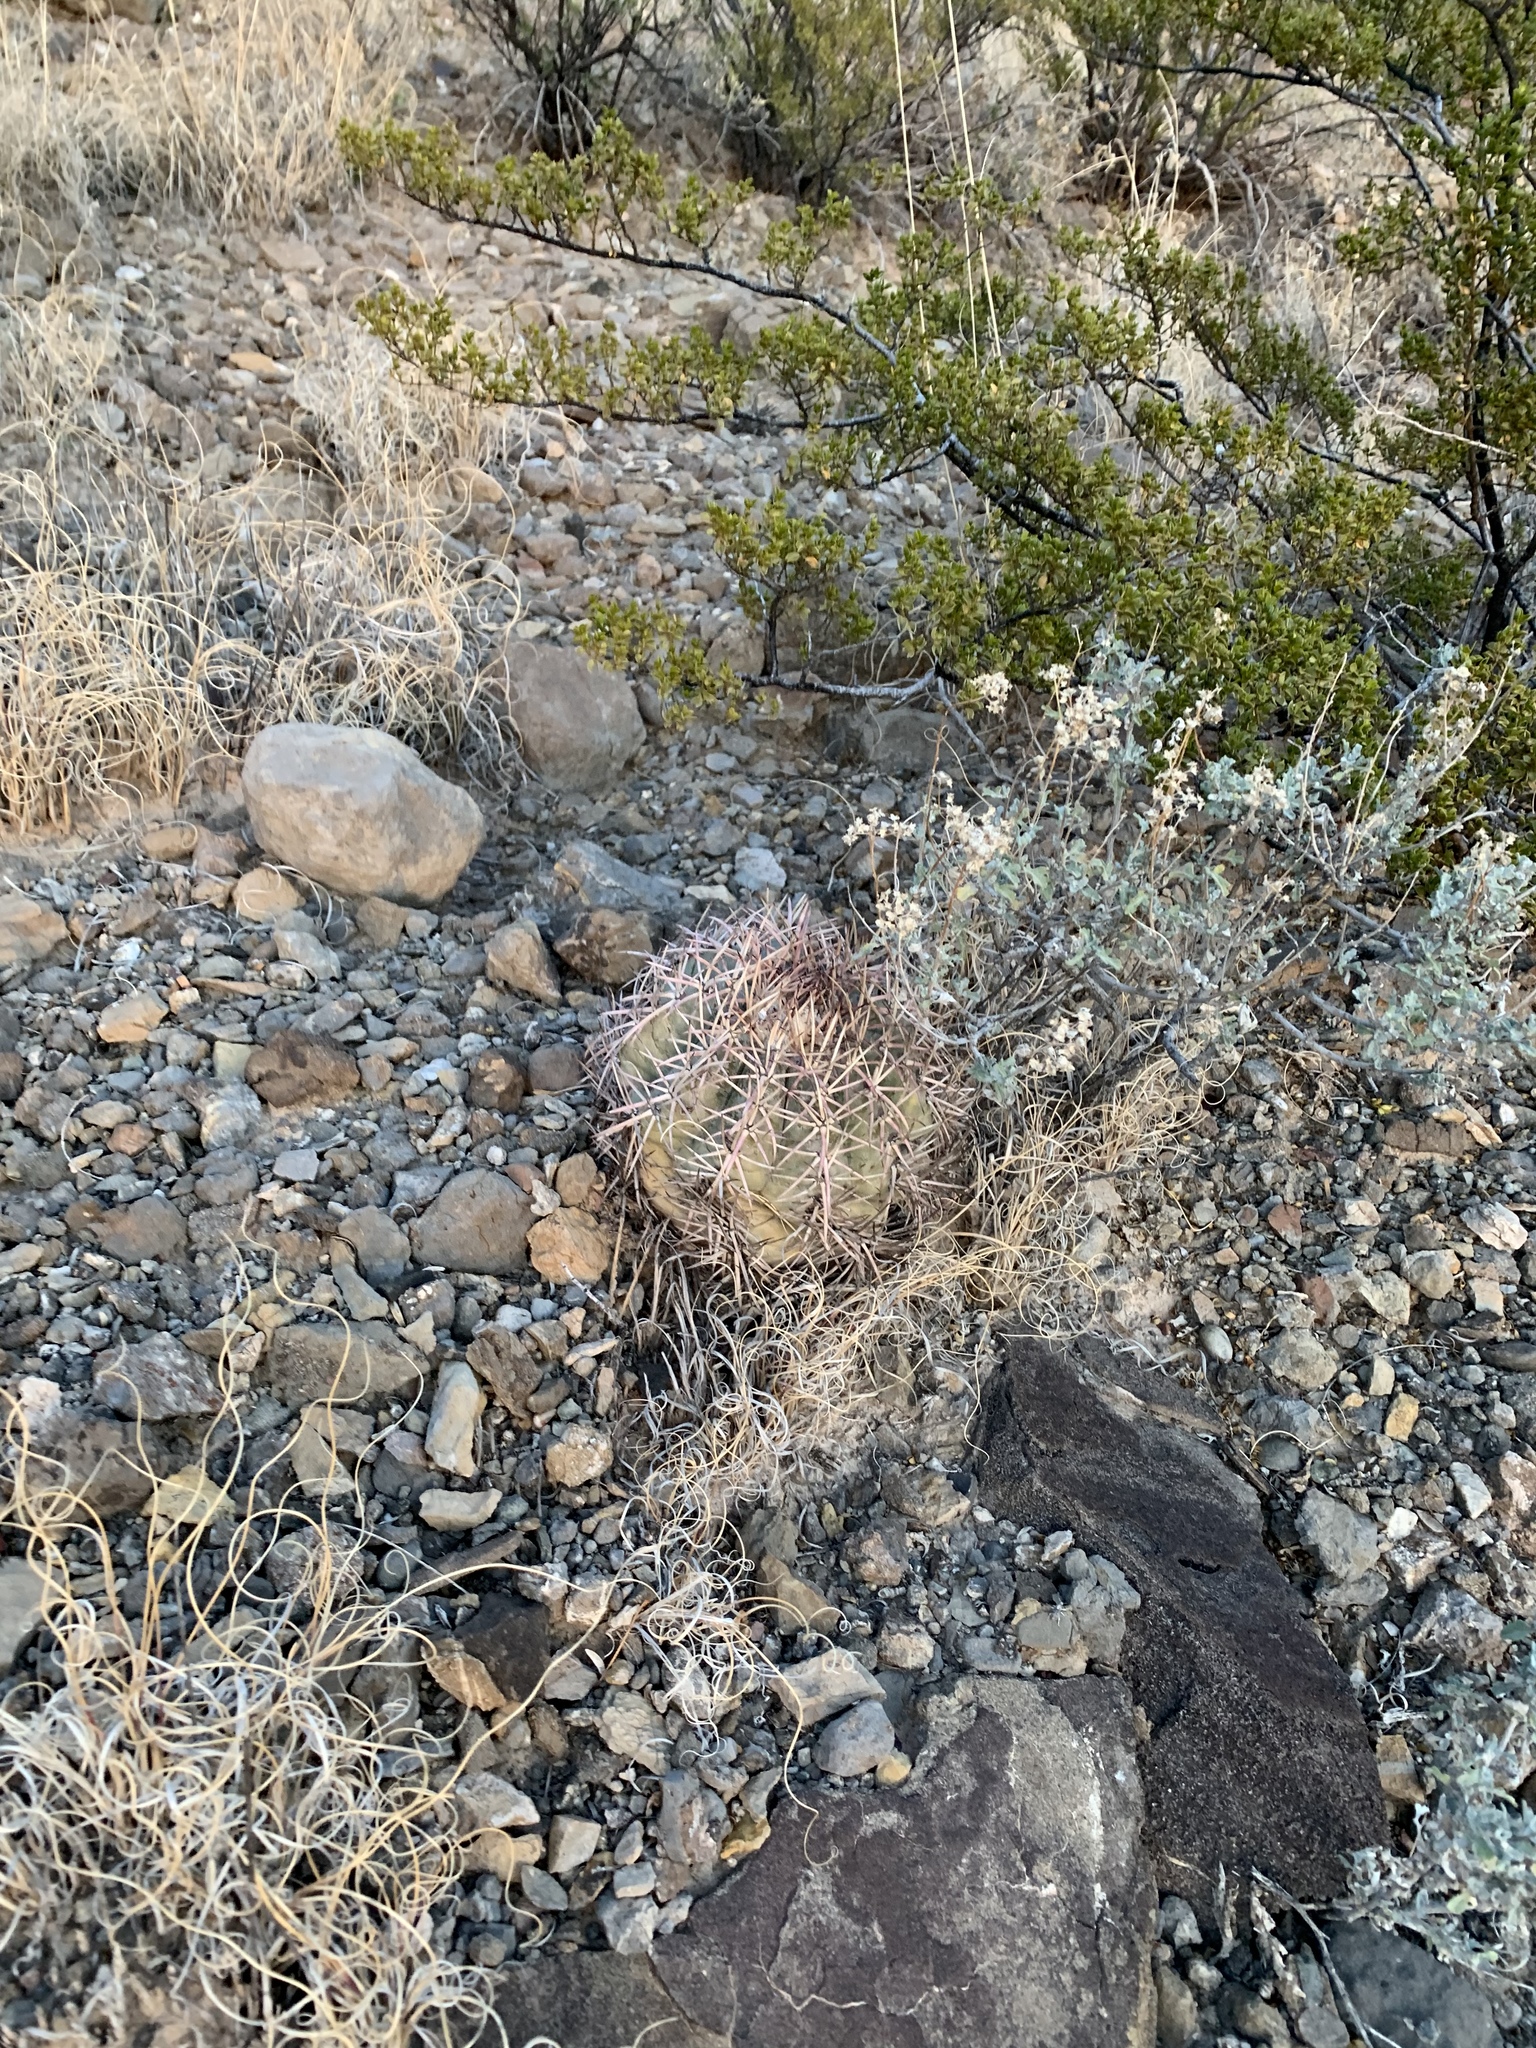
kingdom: Plantae
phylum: Tracheophyta
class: Magnoliopsida
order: Caryophyllales
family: Cactaceae
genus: Echinocactus
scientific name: Echinocactus horizonthalonius
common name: Devilshead
